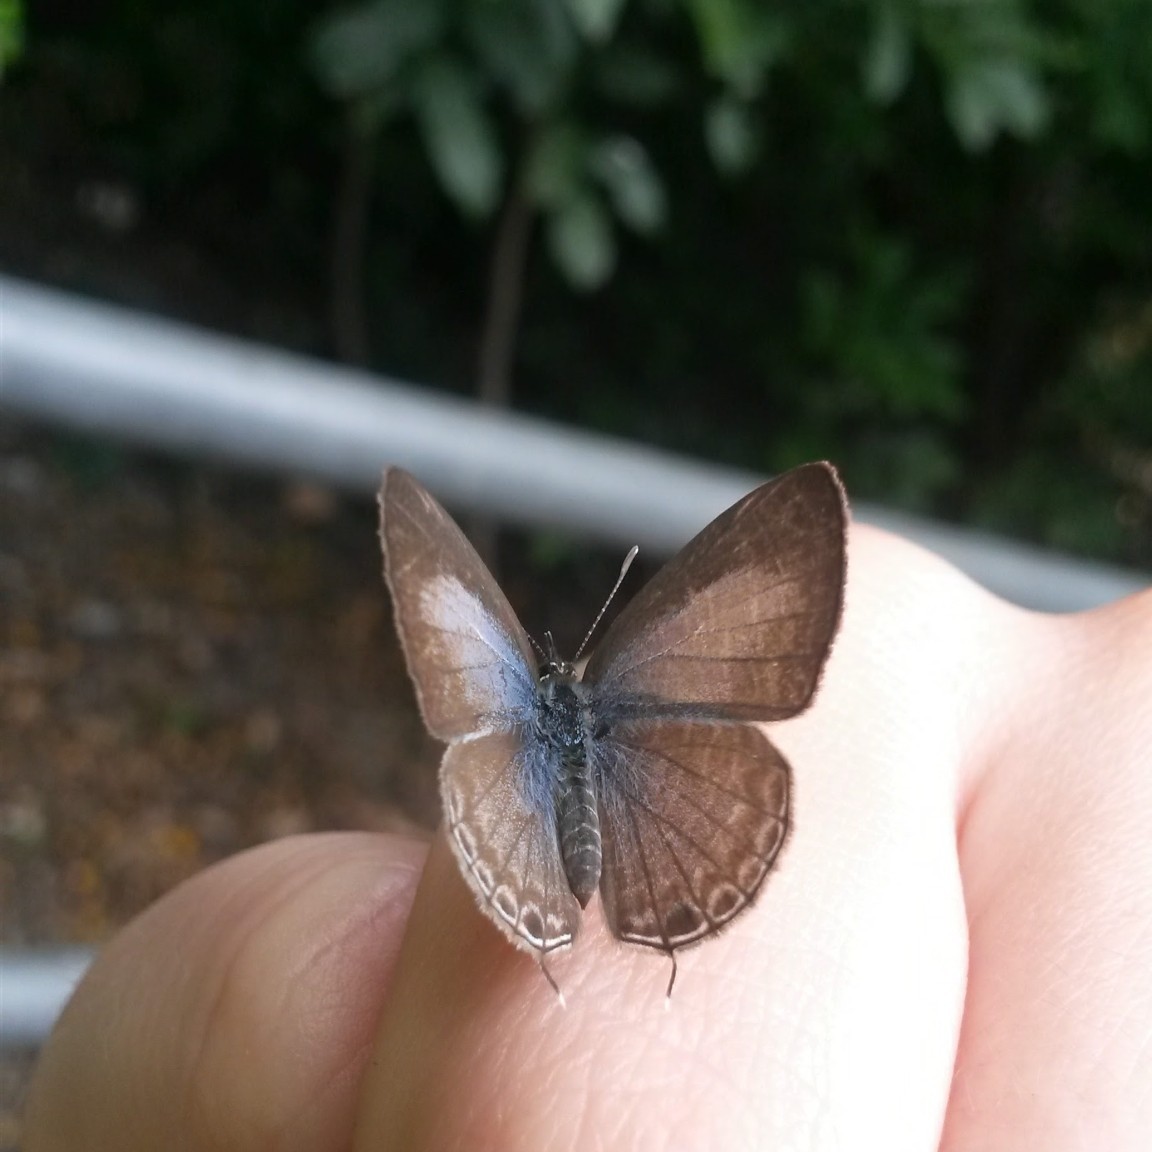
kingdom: Animalia
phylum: Arthropoda
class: Insecta
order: Lepidoptera
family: Lycaenidae
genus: Nacaduba
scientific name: Nacaduba berenice
